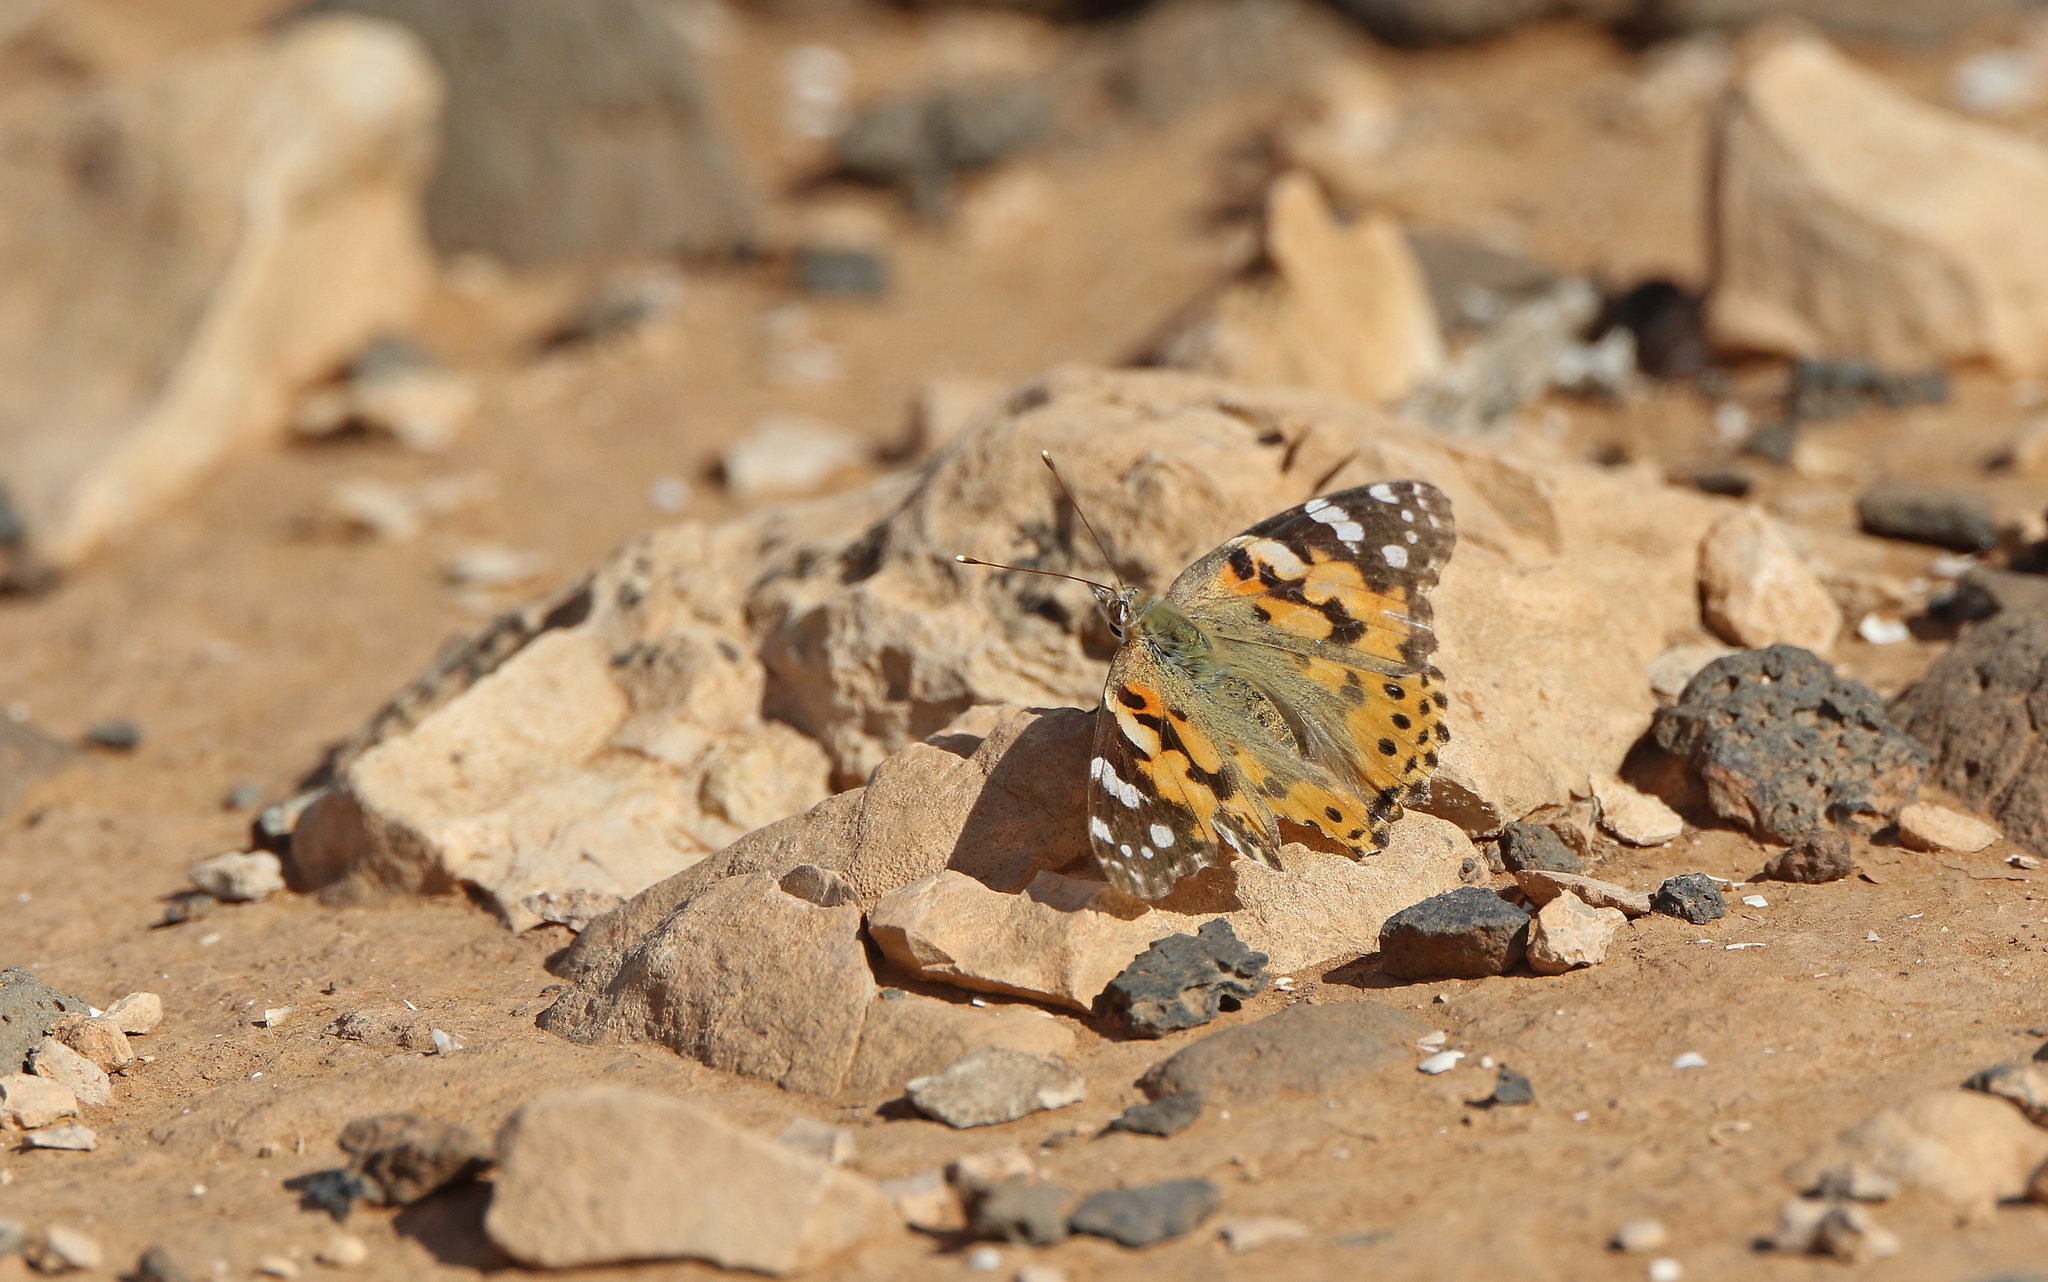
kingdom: Animalia
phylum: Arthropoda
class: Insecta
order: Lepidoptera
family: Nymphalidae
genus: Vanessa
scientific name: Vanessa cardui
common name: Painted lady
